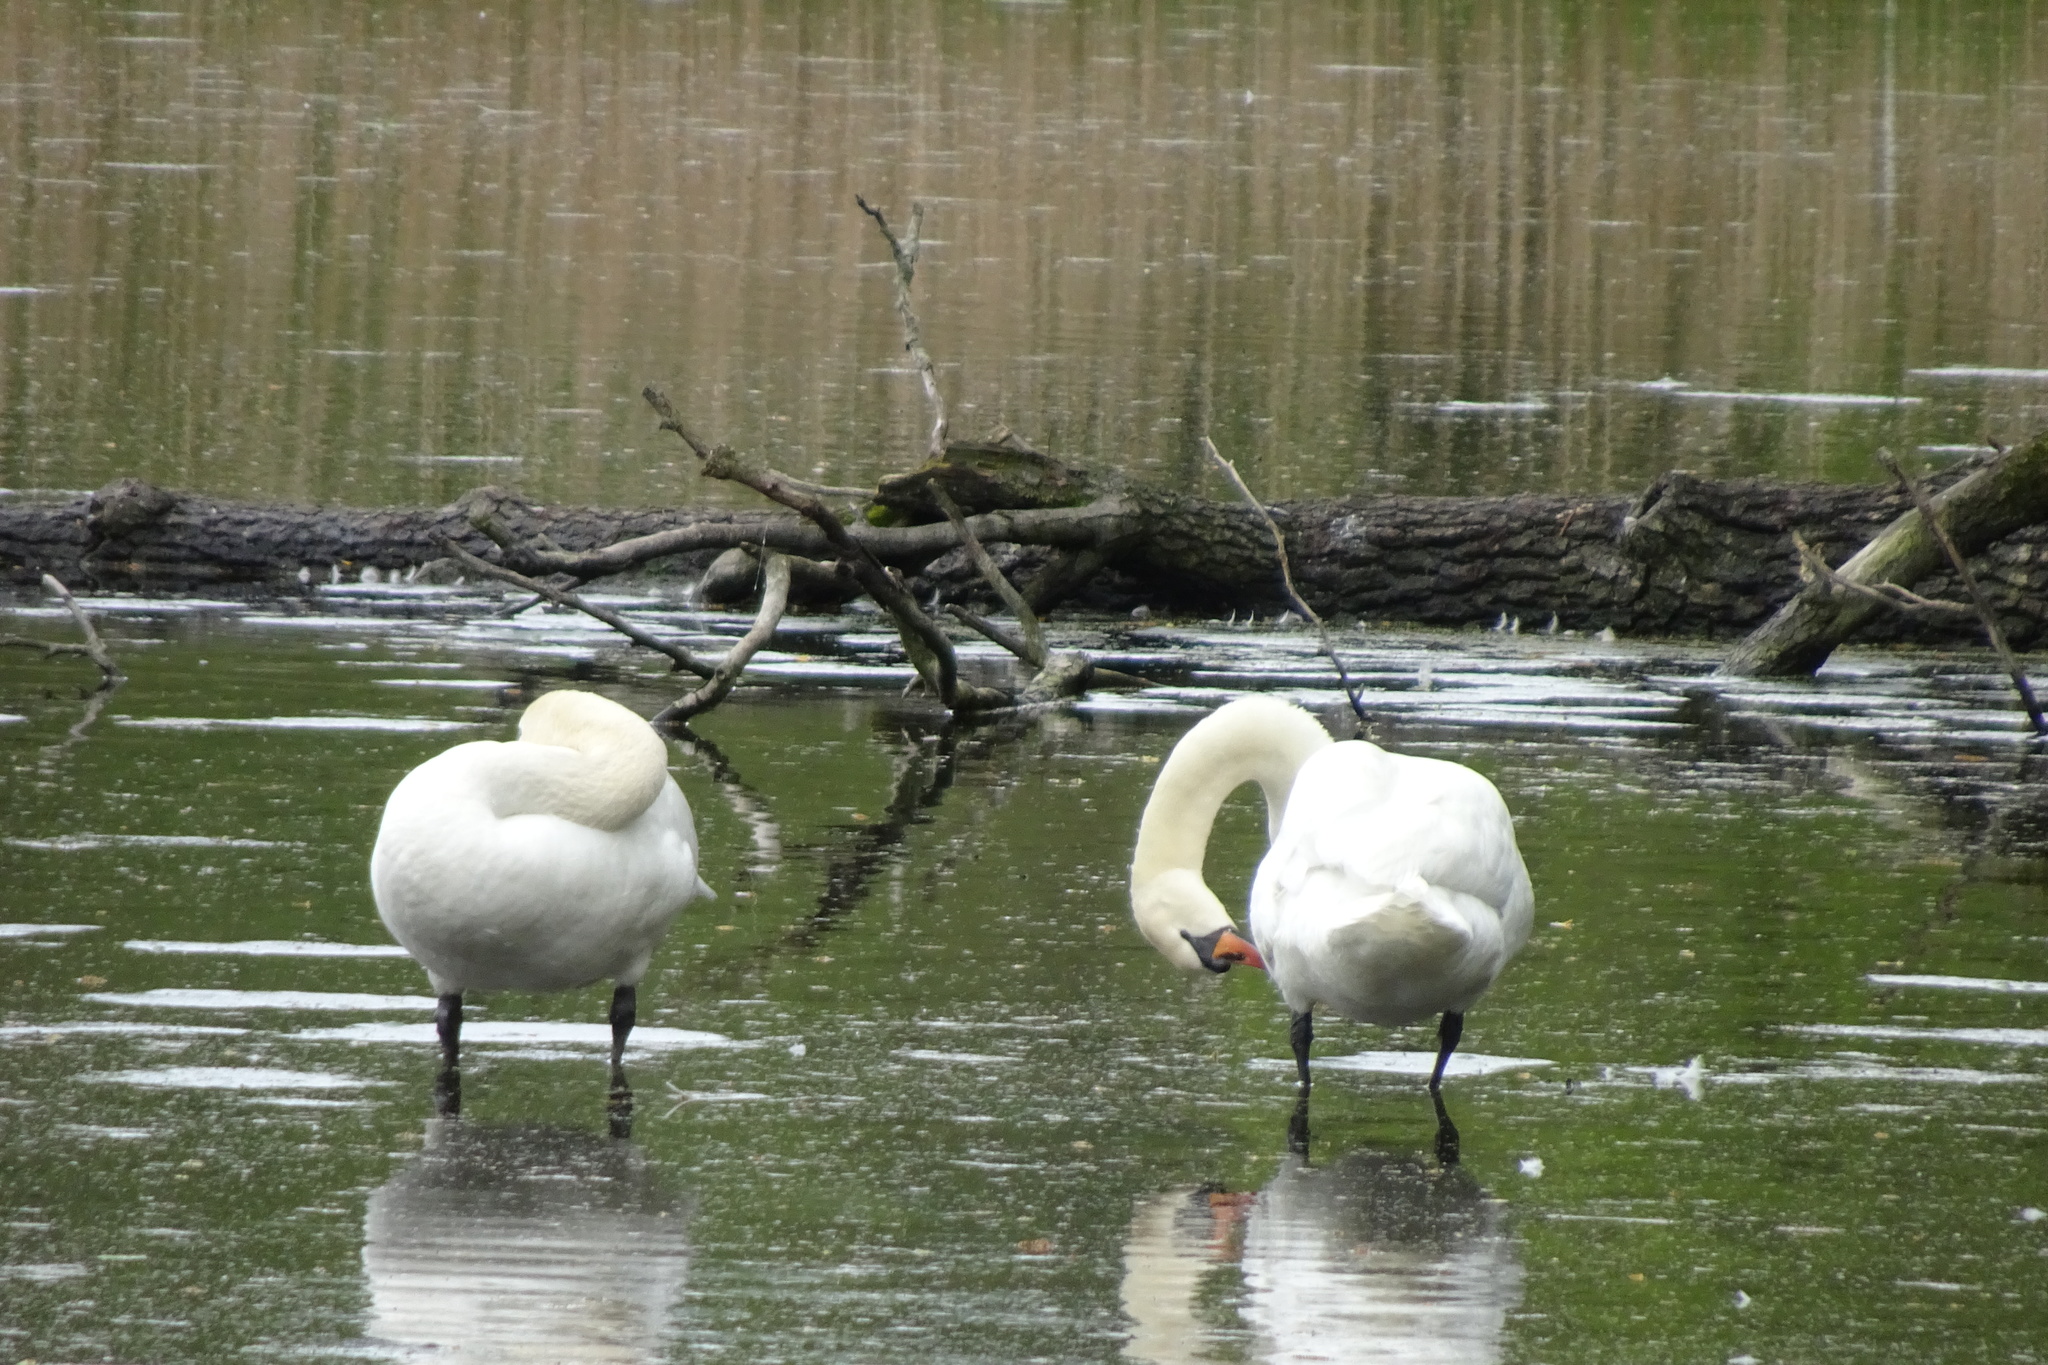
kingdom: Animalia
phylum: Chordata
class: Aves
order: Anseriformes
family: Anatidae
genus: Cygnus
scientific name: Cygnus olor
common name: Mute swan
